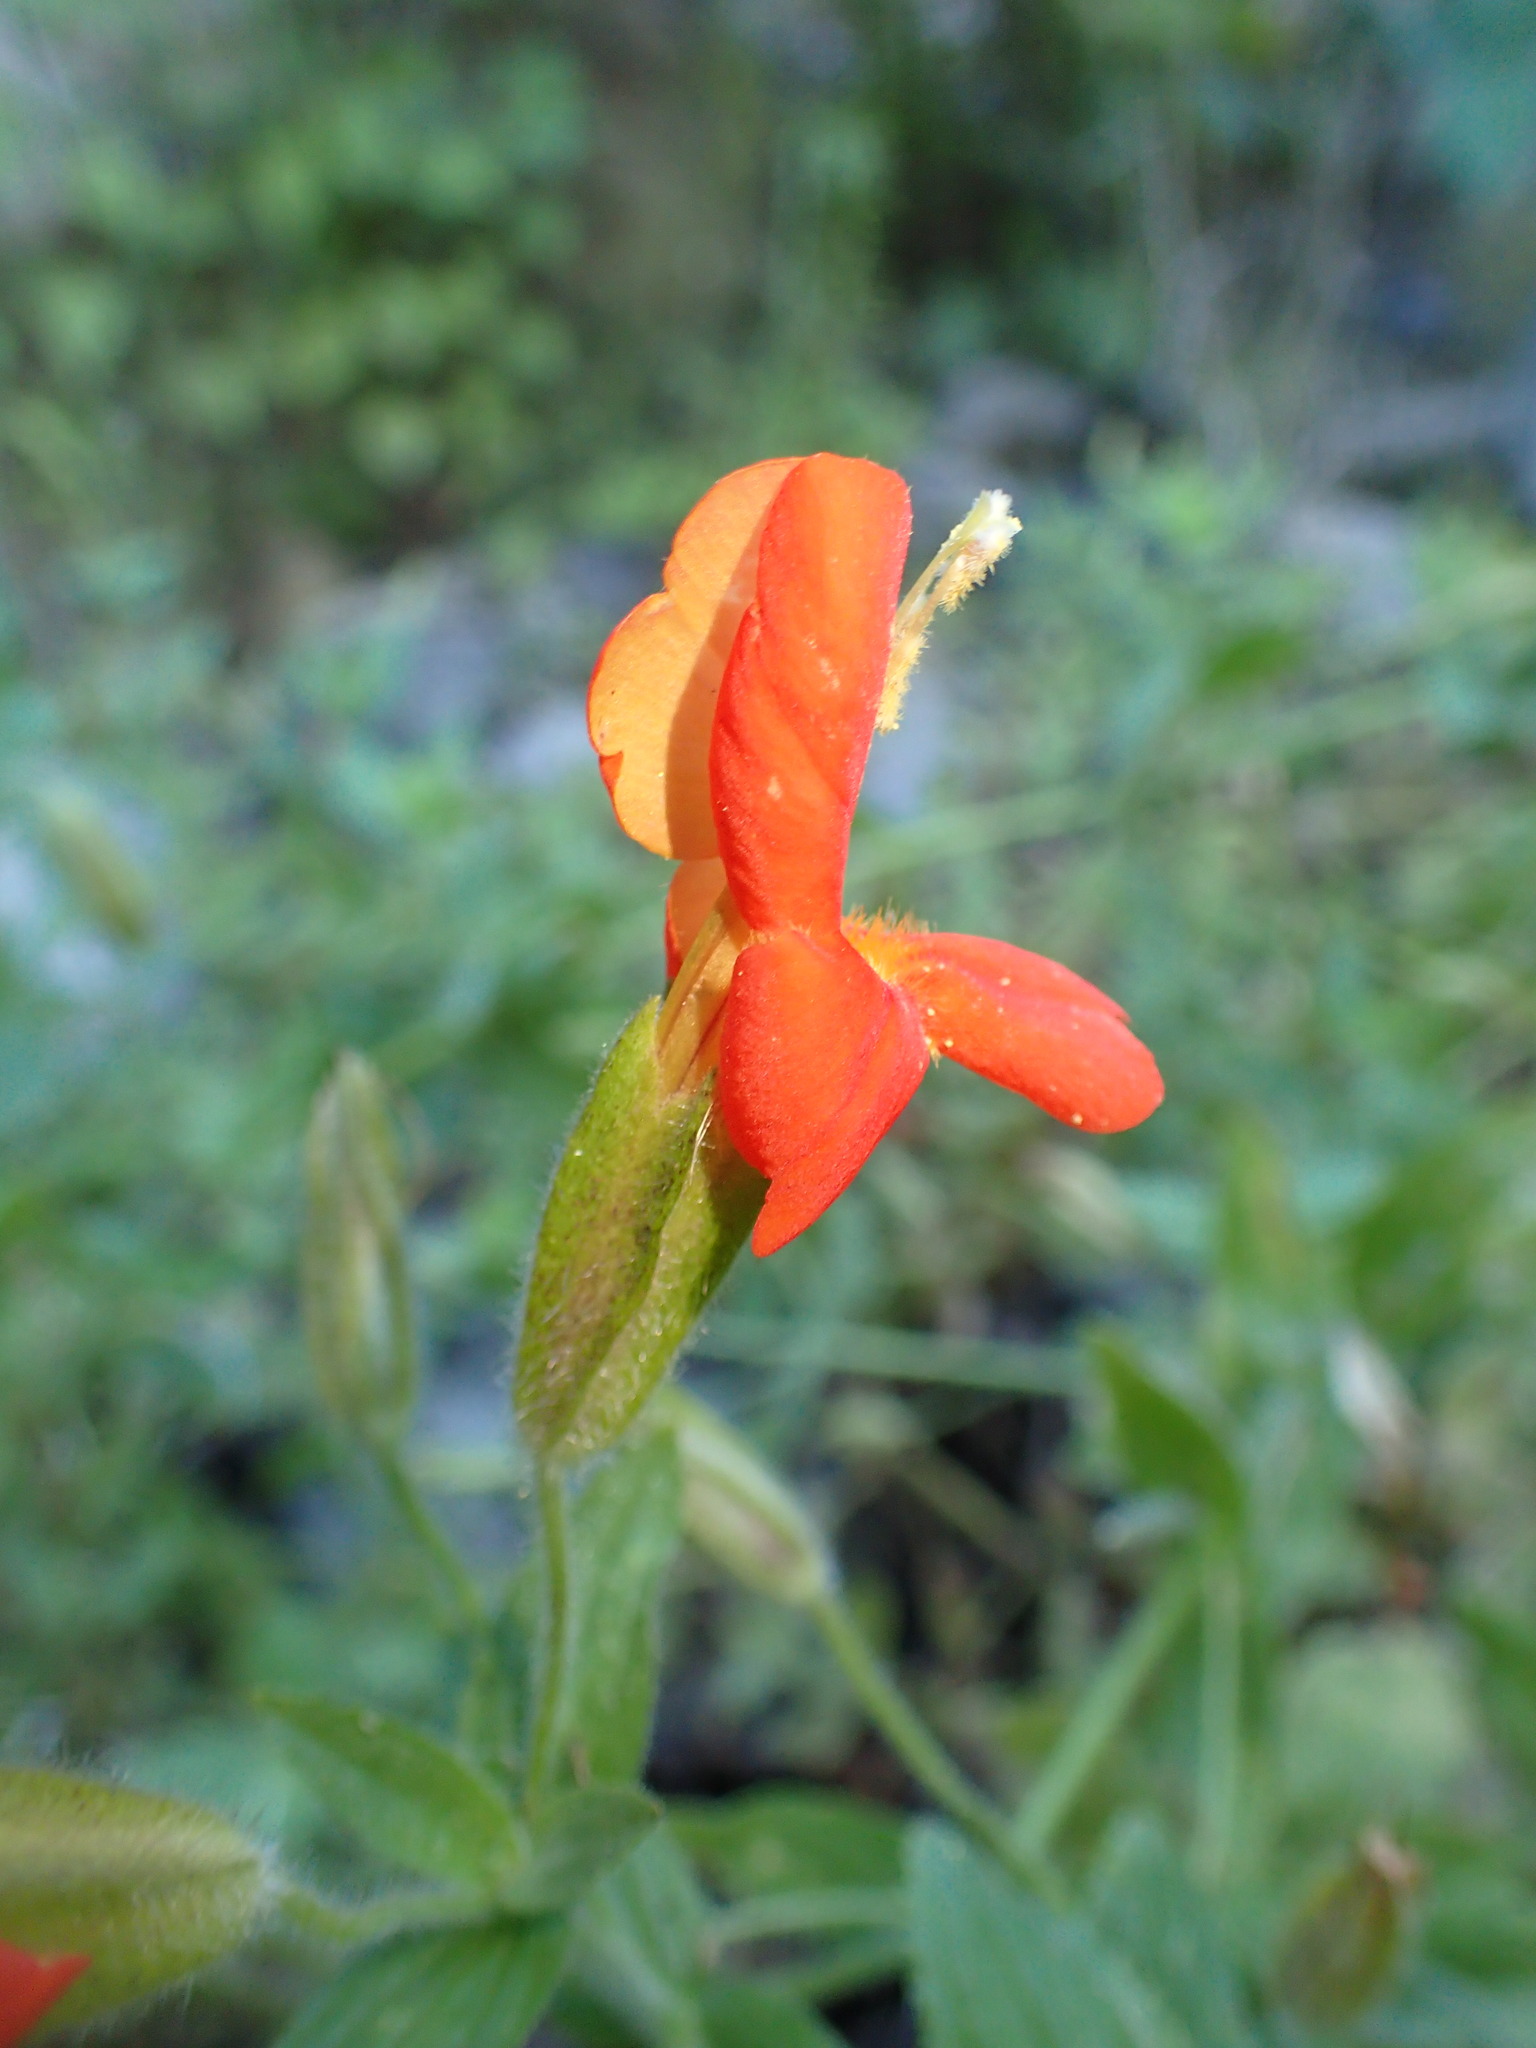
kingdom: Plantae
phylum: Tracheophyta
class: Magnoliopsida
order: Lamiales
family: Phrymaceae
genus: Erythranthe
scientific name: Erythranthe cardinalis
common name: Scarlet monkey-flower
